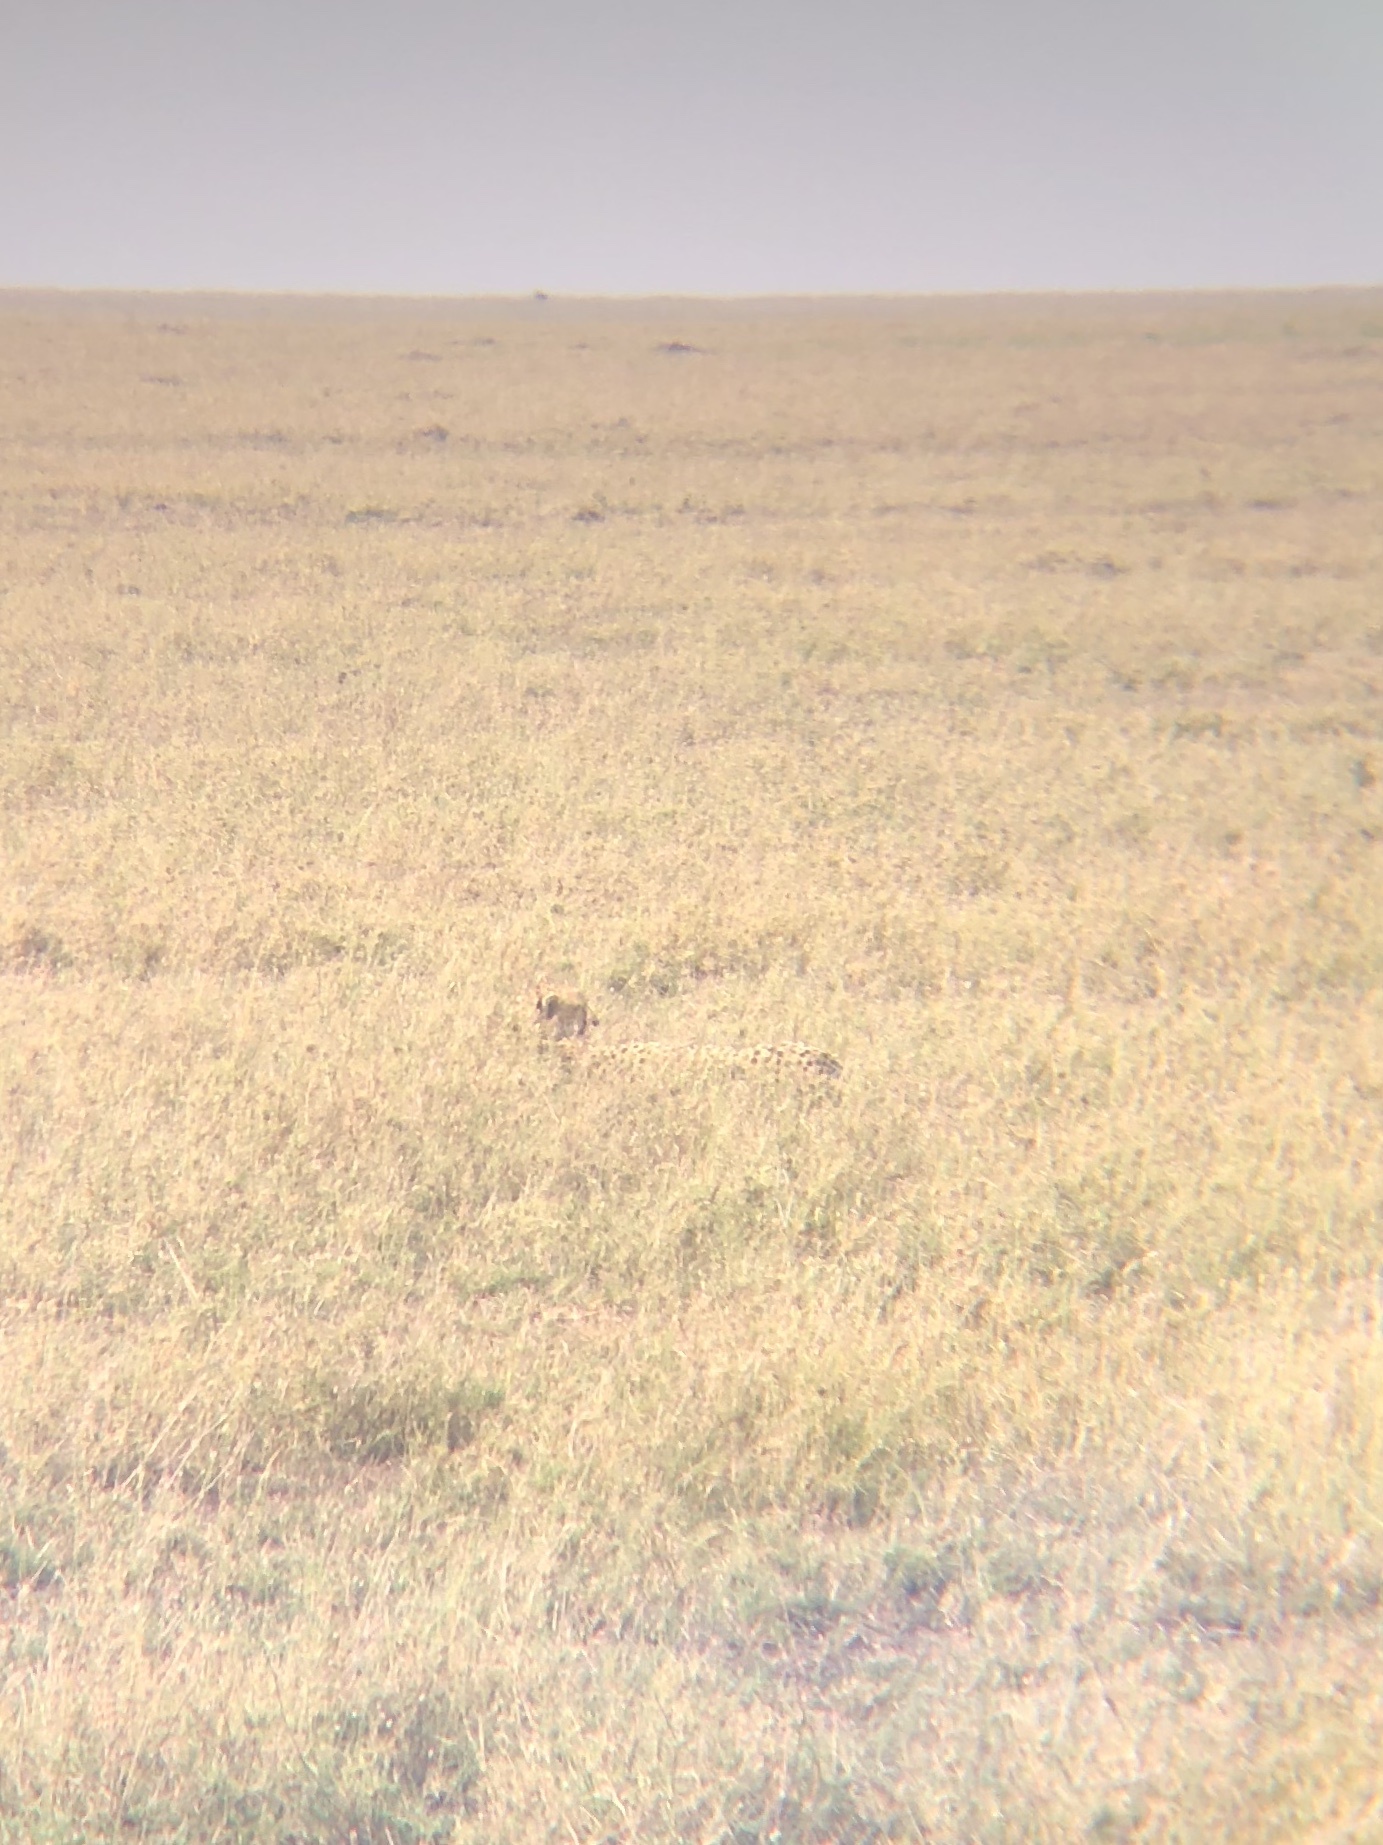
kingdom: Animalia
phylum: Chordata
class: Mammalia
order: Carnivora
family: Felidae
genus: Acinonyx
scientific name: Acinonyx jubatus
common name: Cheetah
